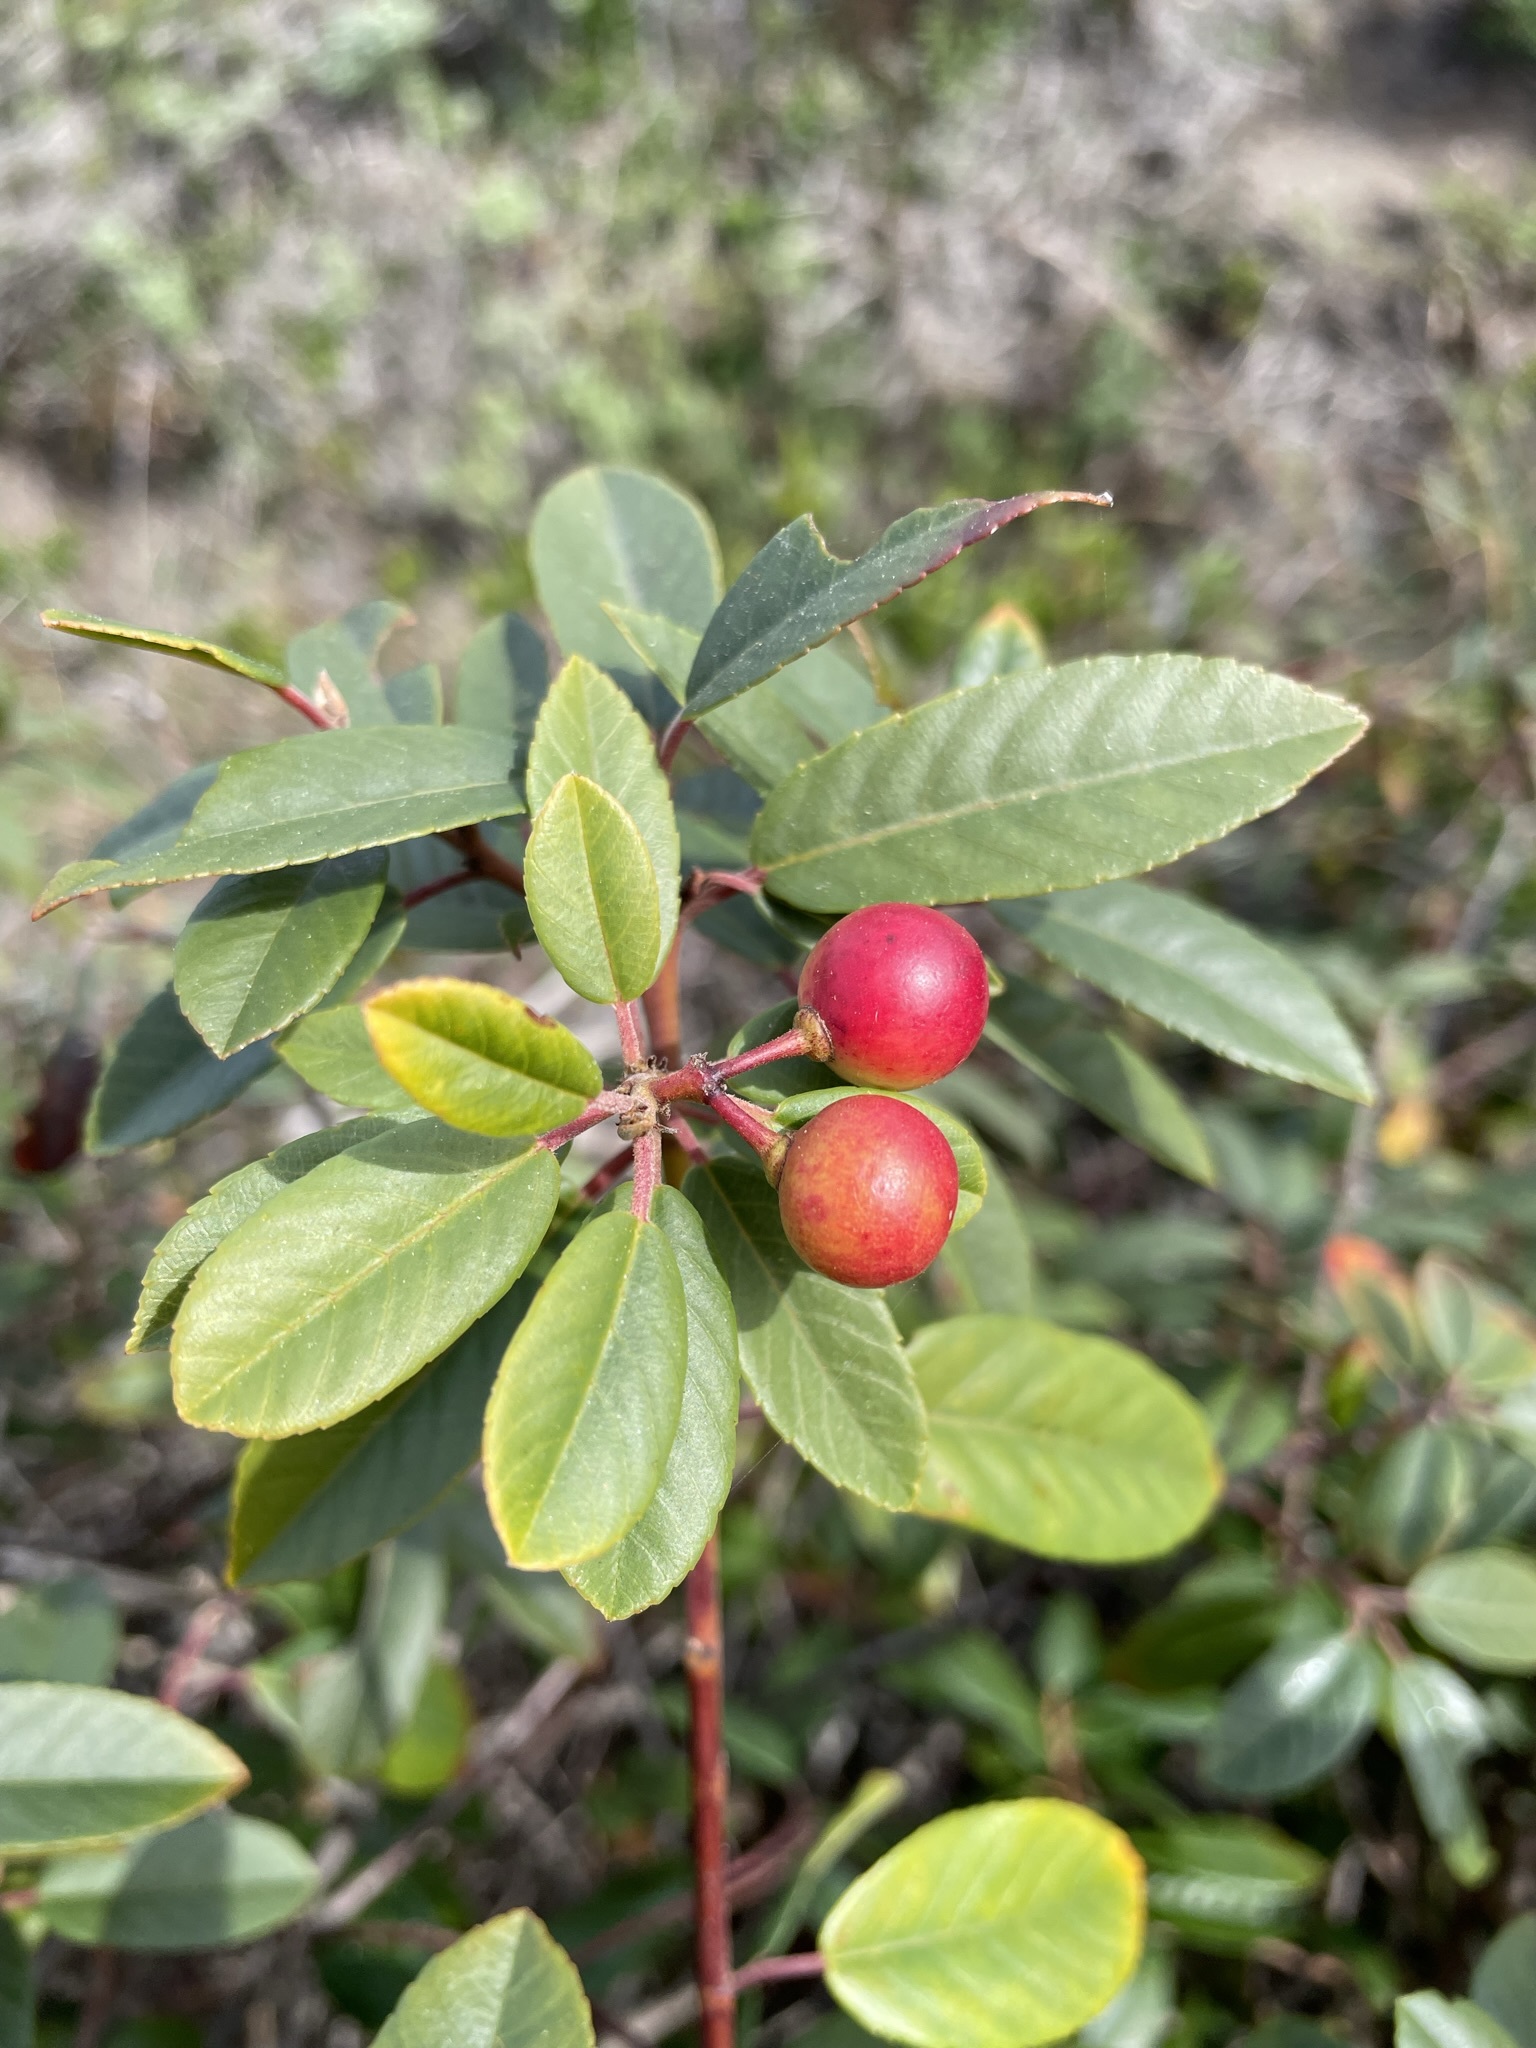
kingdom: Plantae
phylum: Tracheophyta
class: Magnoliopsida
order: Rosales
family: Rhamnaceae
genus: Frangula
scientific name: Frangula californica
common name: California buckthorn
